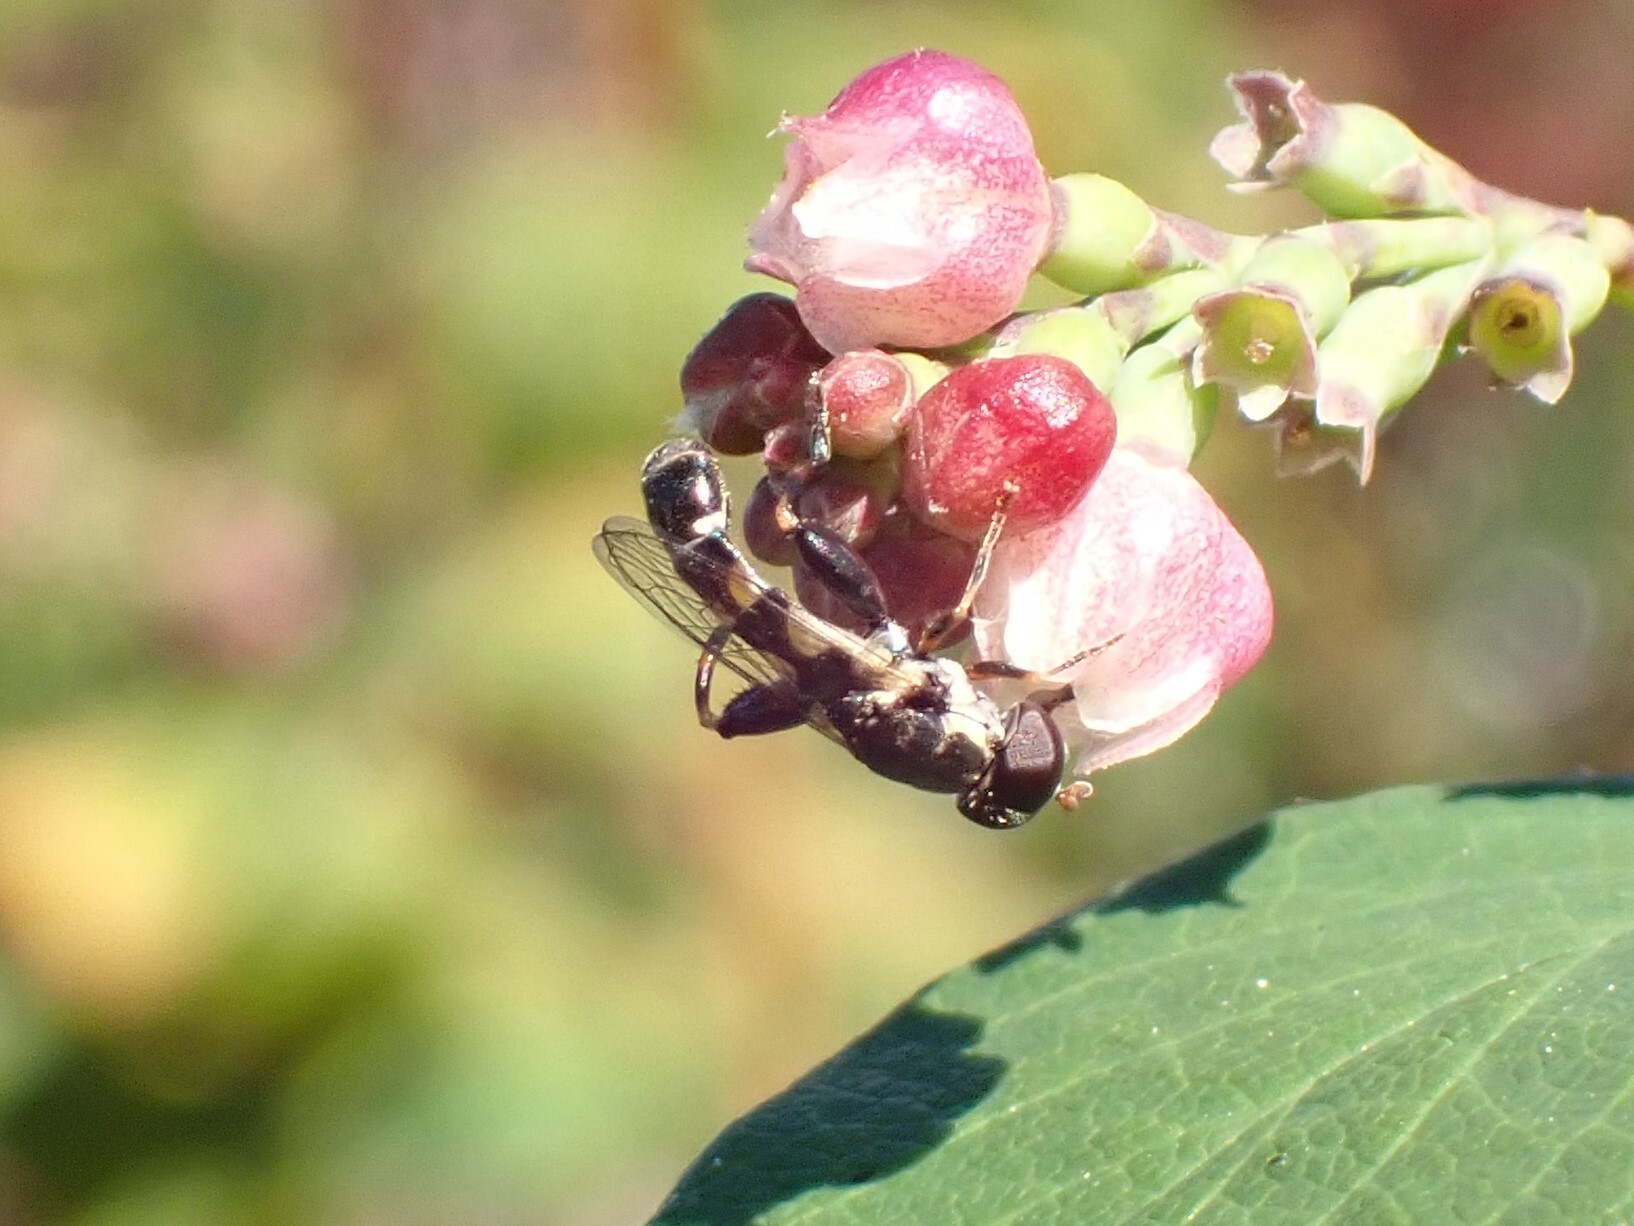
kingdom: Animalia
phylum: Arthropoda
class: Insecta
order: Diptera
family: Syrphidae
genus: Syritta
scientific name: Syritta pipiens
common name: Hover fly
